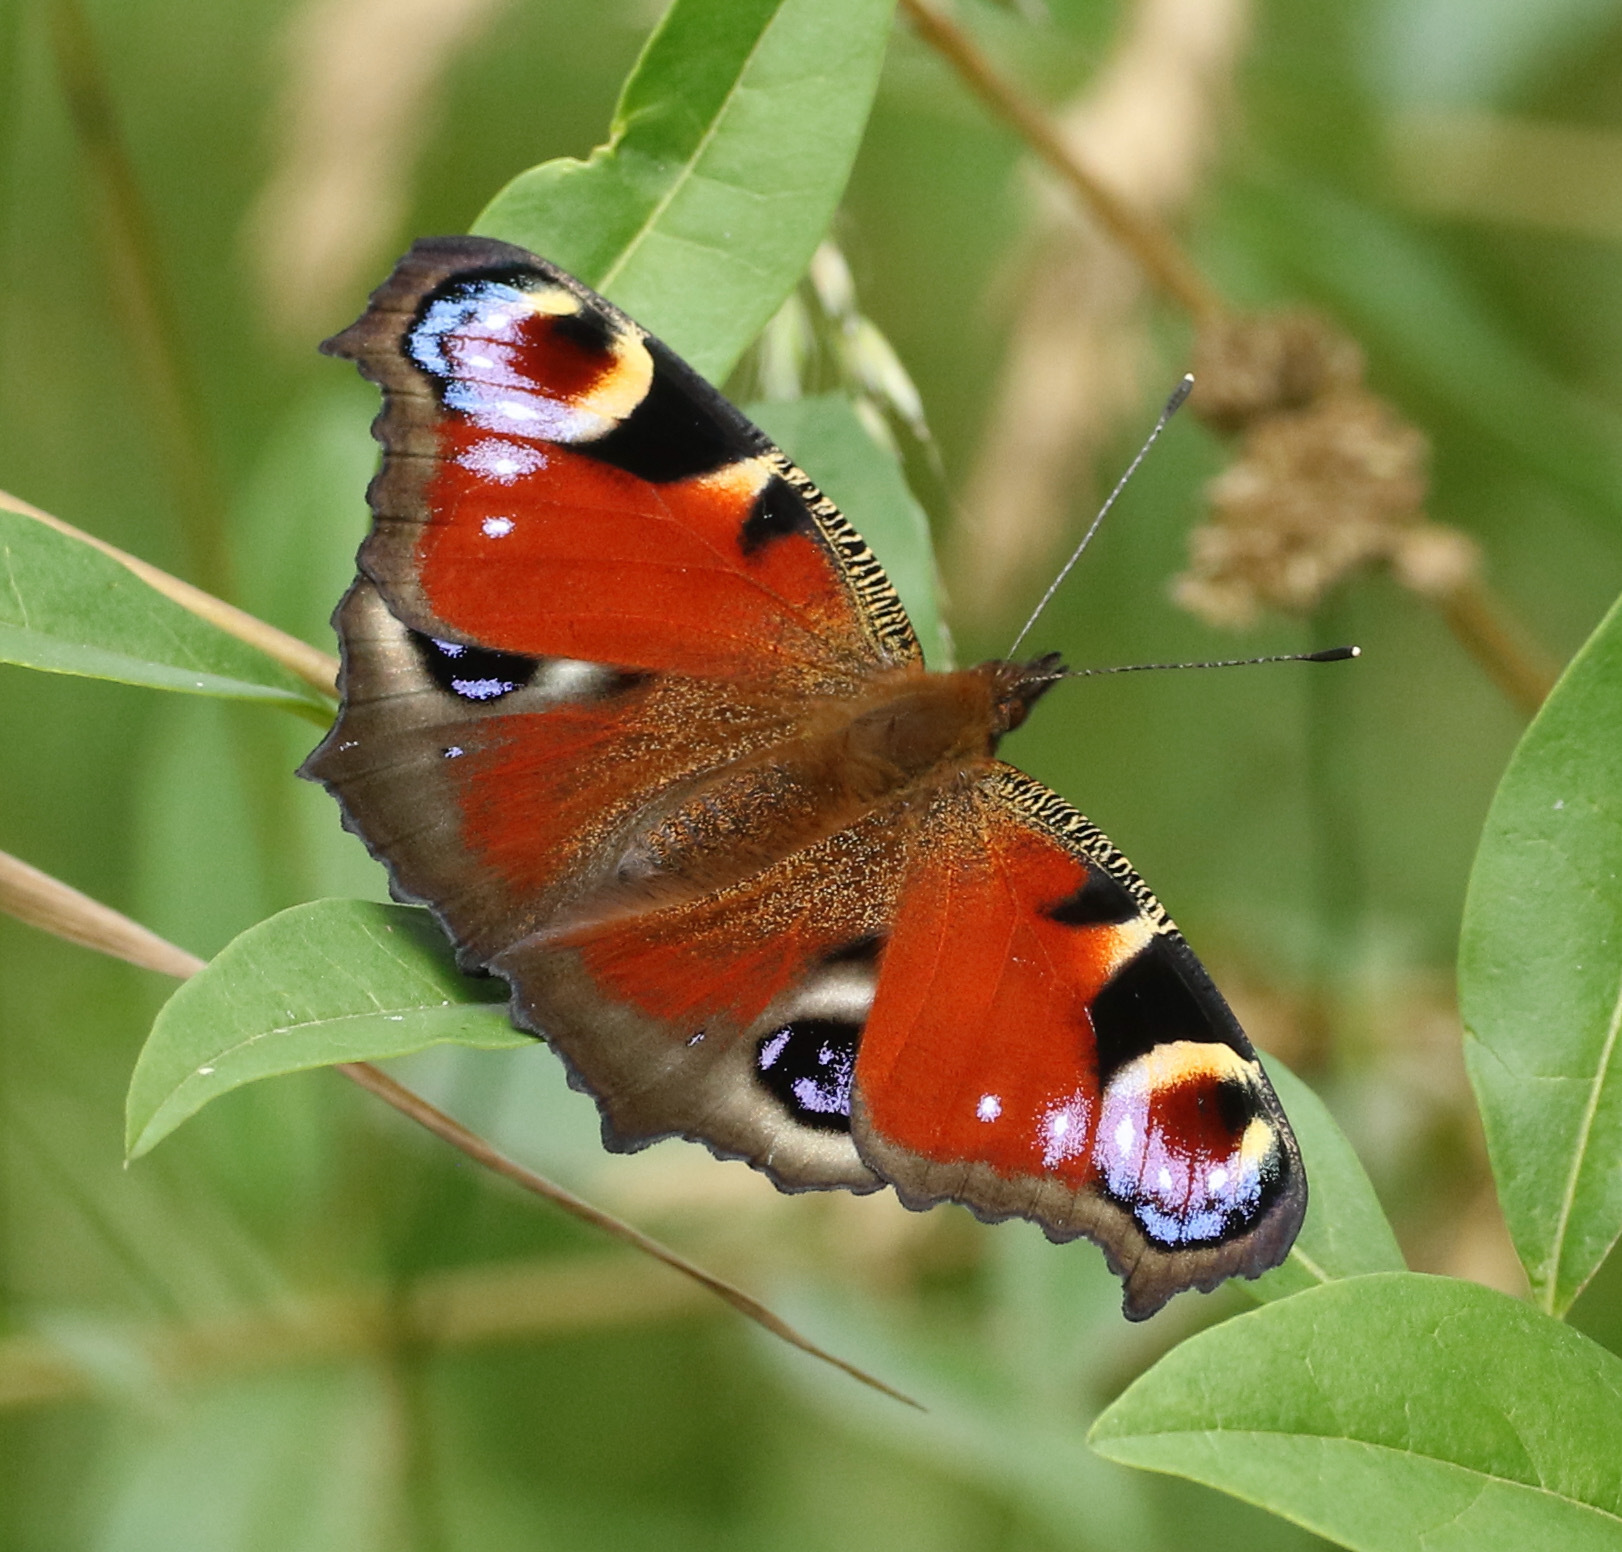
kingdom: Animalia
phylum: Arthropoda
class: Insecta
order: Lepidoptera
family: Nymphalidae
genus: Aglais
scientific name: Aglais io
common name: Peacock
